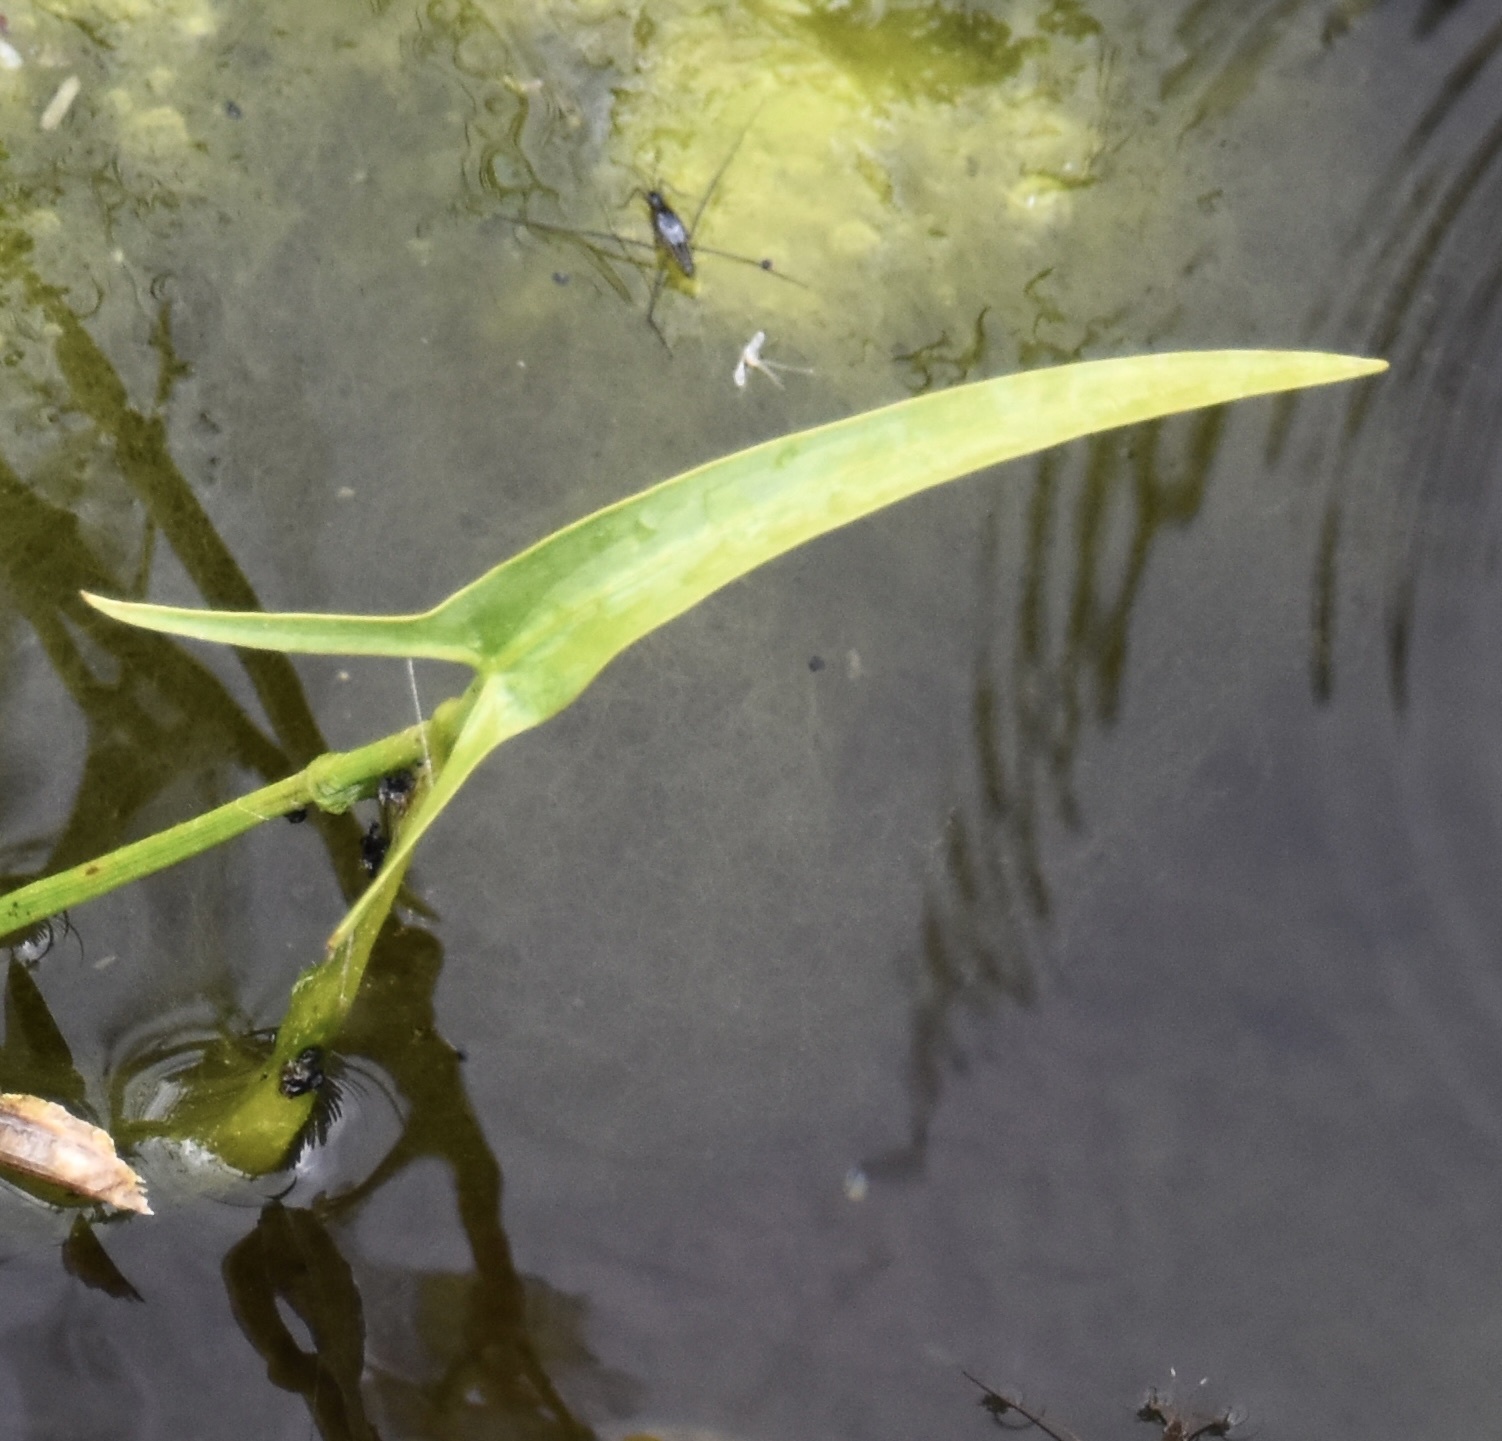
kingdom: Plantae
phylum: Tracheophyta
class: Liliopsida
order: Alismatales
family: Alismataceae
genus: Sagittaria
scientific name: Sagittaria cuneata
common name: Northern arrowhead
